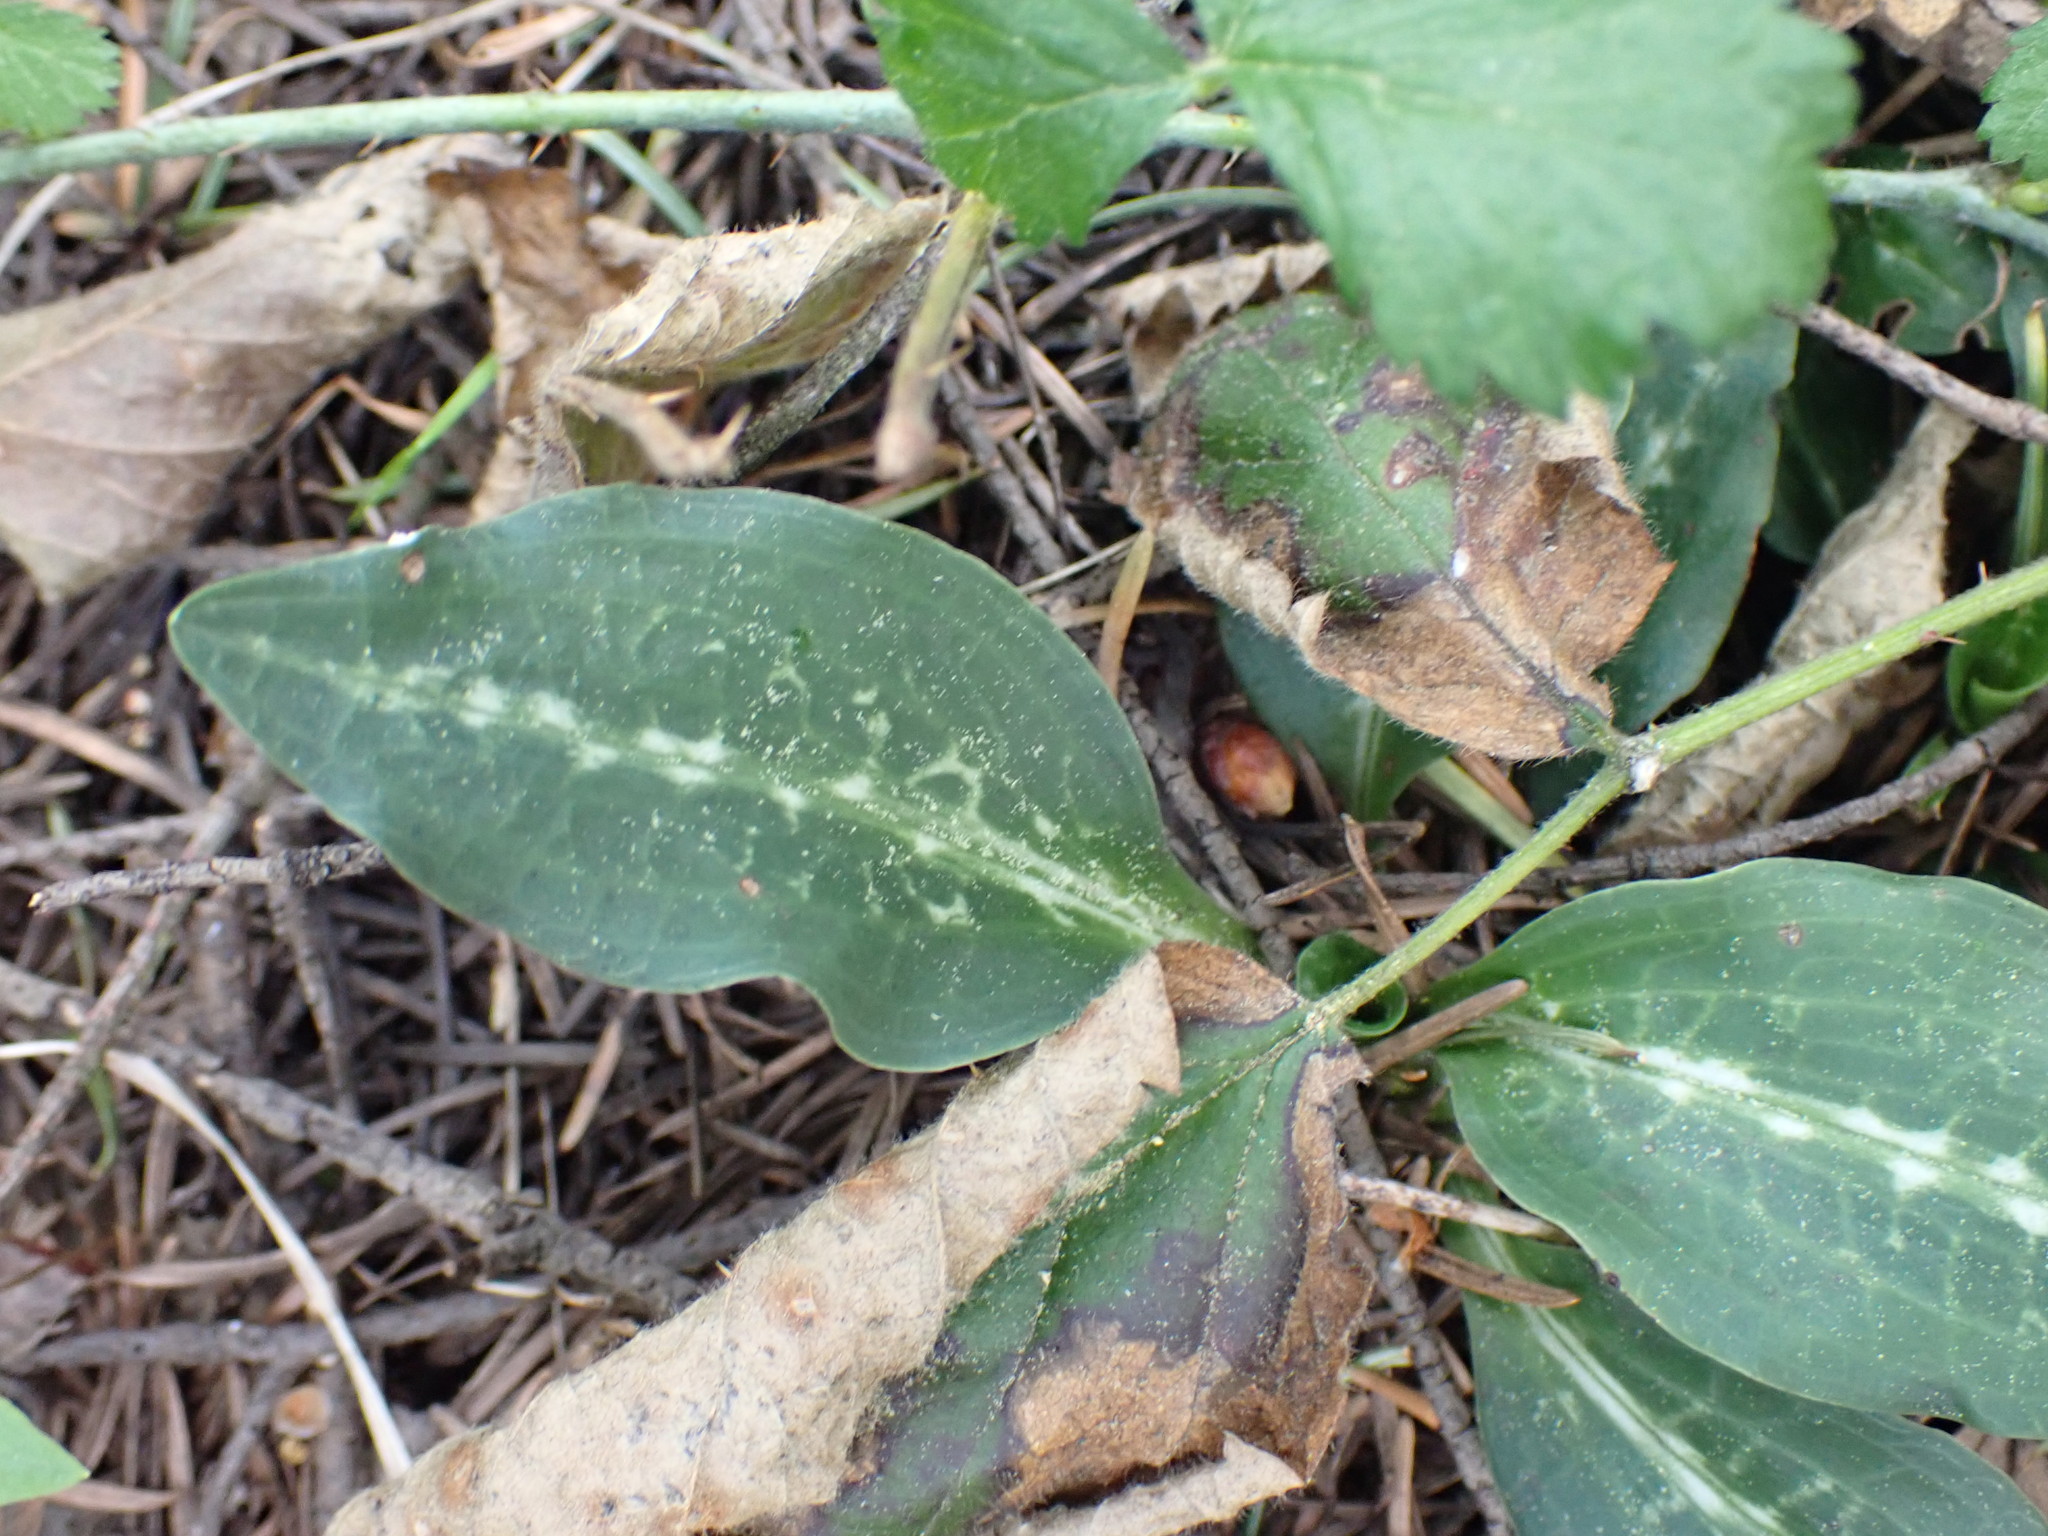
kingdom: Plantae
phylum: Tracheophyta
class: Liliopsida
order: Asparagales
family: Orchidaceae
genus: Goodyera
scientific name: Goodyera oblongifolia
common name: Giant rattlesnake-plantain
